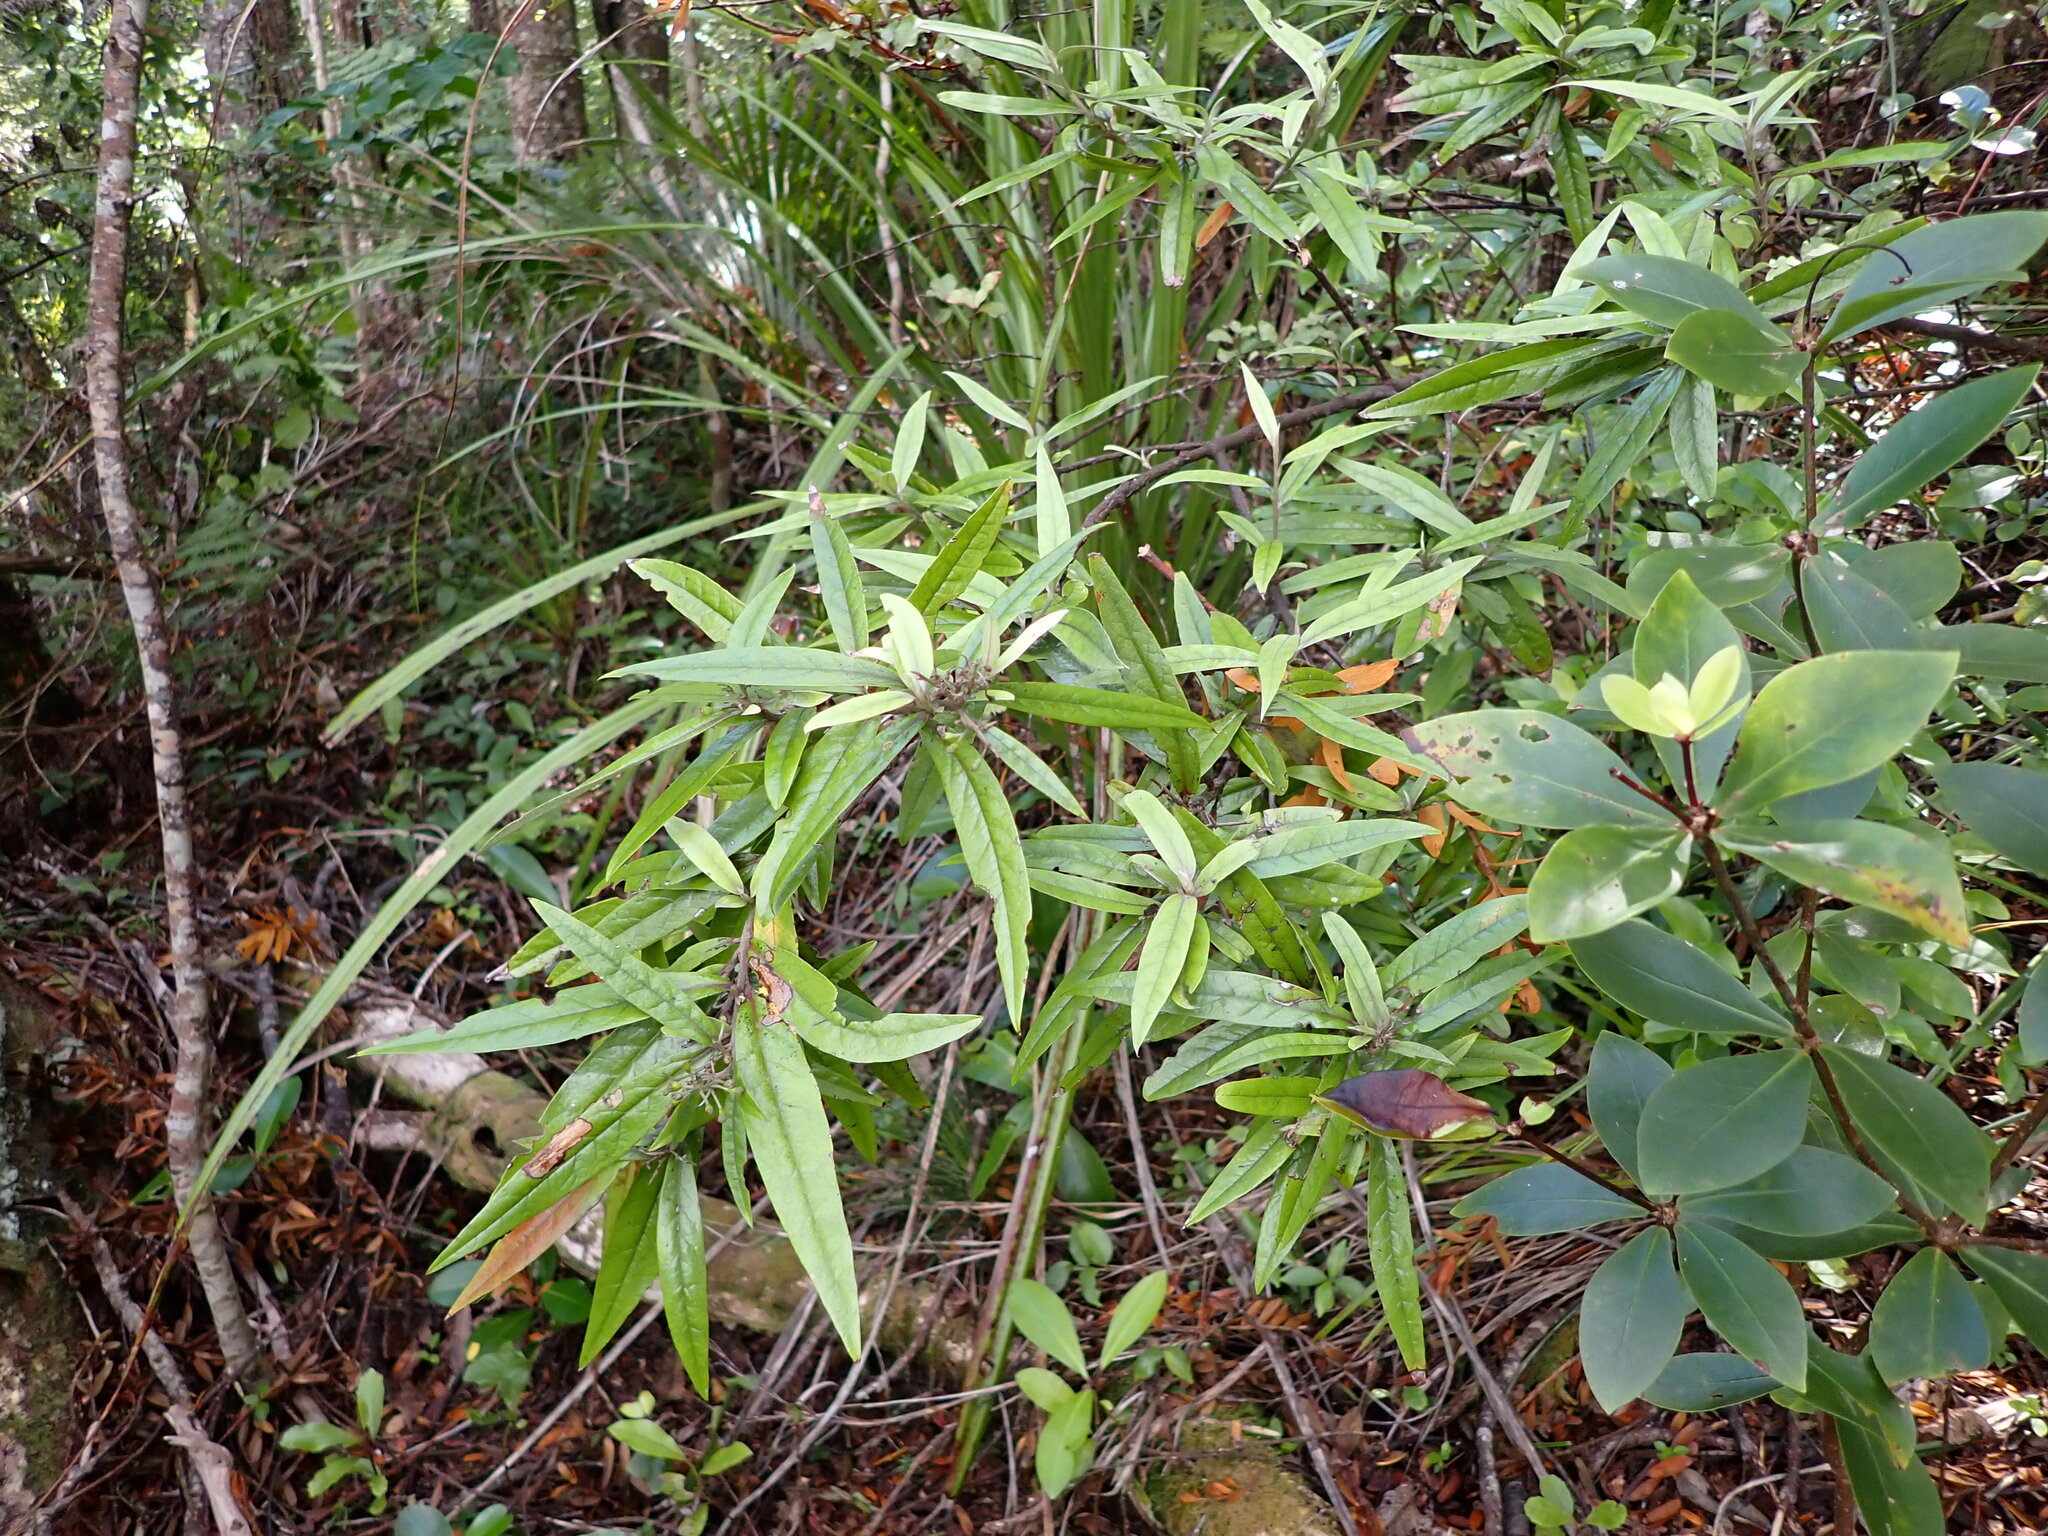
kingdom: Plantae
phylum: Tracheophyta
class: Magnoliopsida
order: Asterales
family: Argophyllaceae
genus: Corokia
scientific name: Corokia buddleioides
